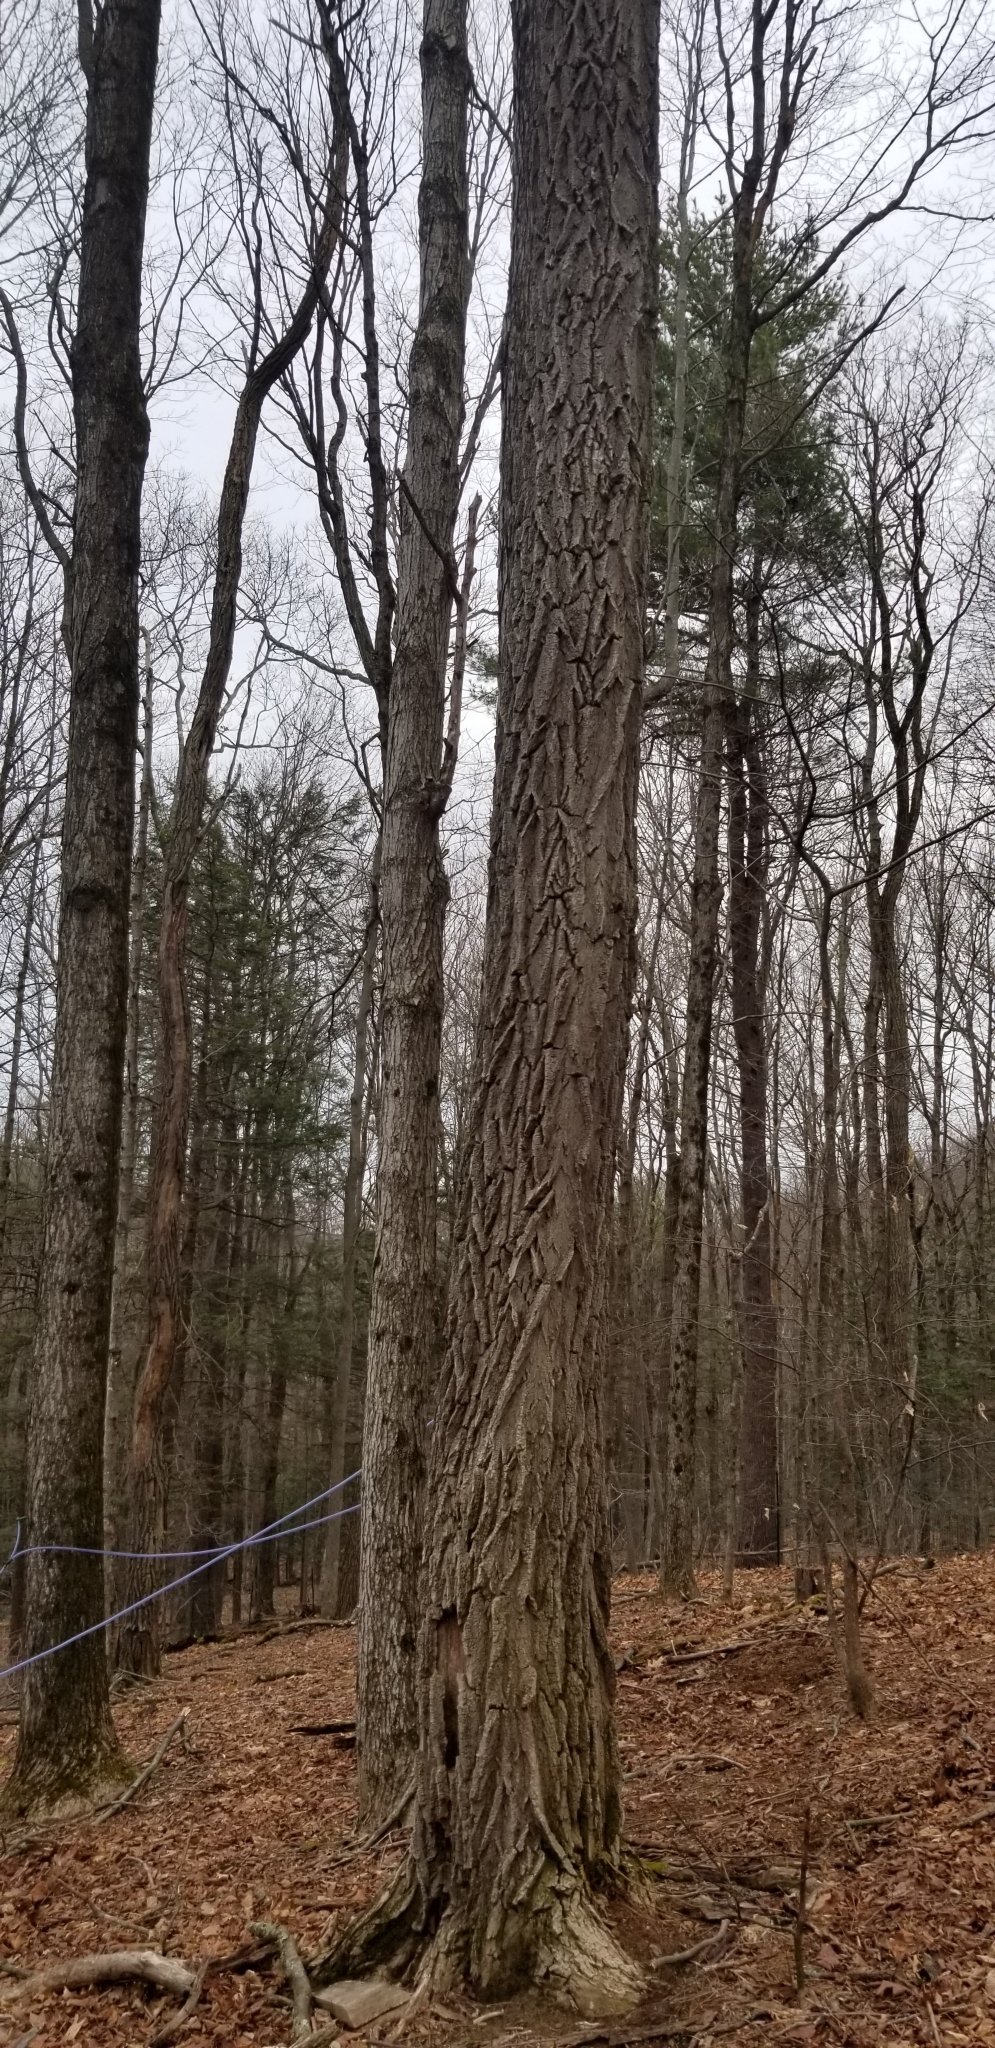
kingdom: Plantae
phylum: Tracheophyta
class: Magnoliopsida
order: Fabales
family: Fabaceae
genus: Robinia
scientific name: Robinia pseudoacacia
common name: Black locust
